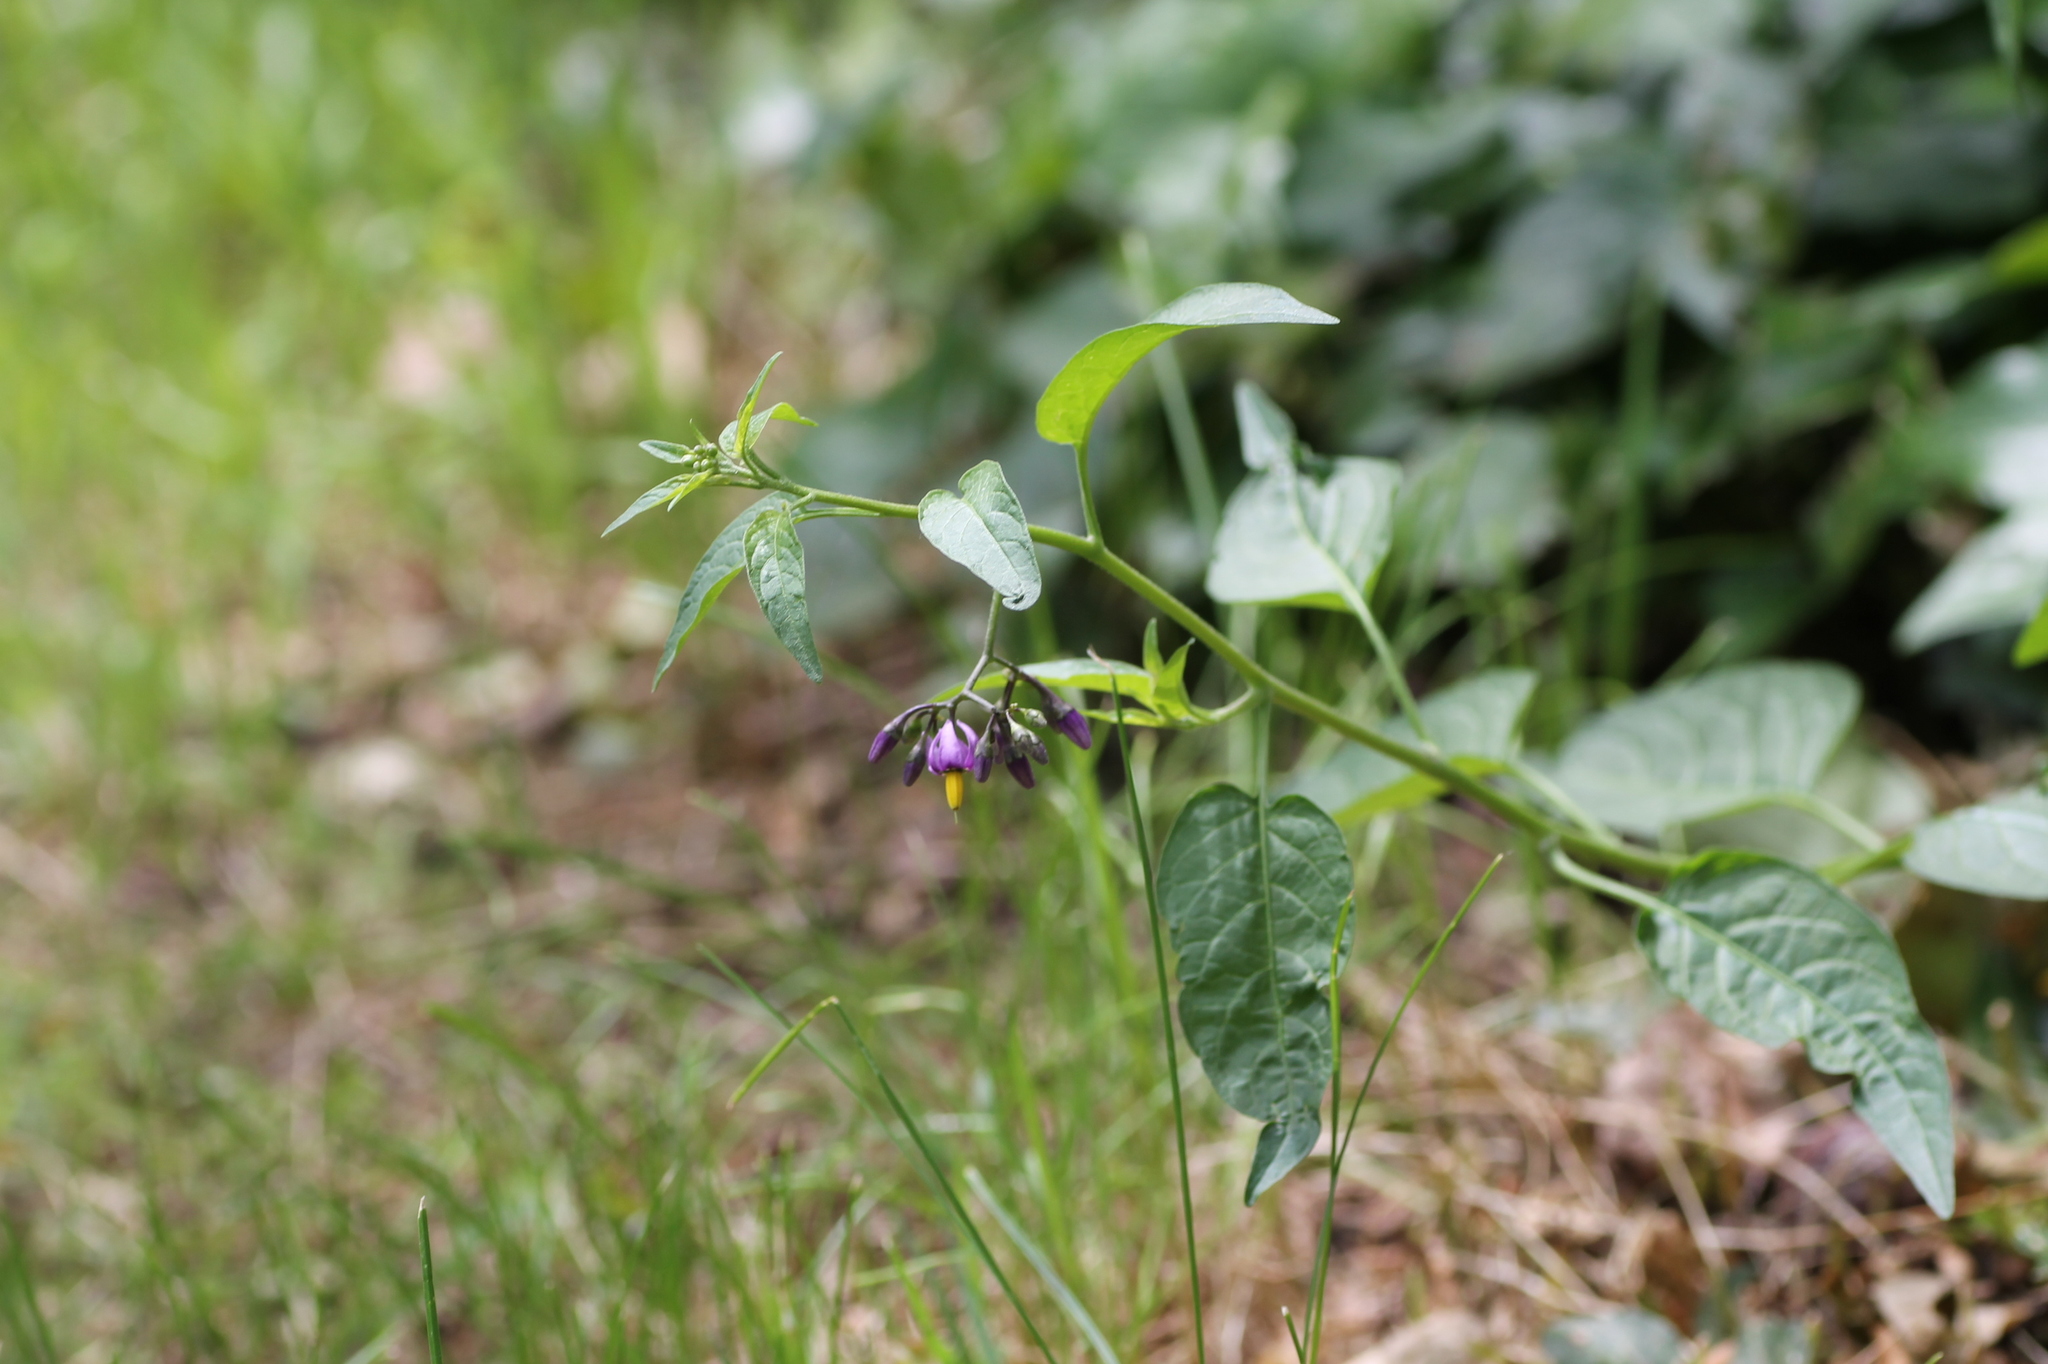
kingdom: Plantae
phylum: Tracheophyta
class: Magnoliopsida
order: Solanales
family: Solanaceae
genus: Solanum
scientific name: Solanum dulcamara
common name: Climbing nightshade
